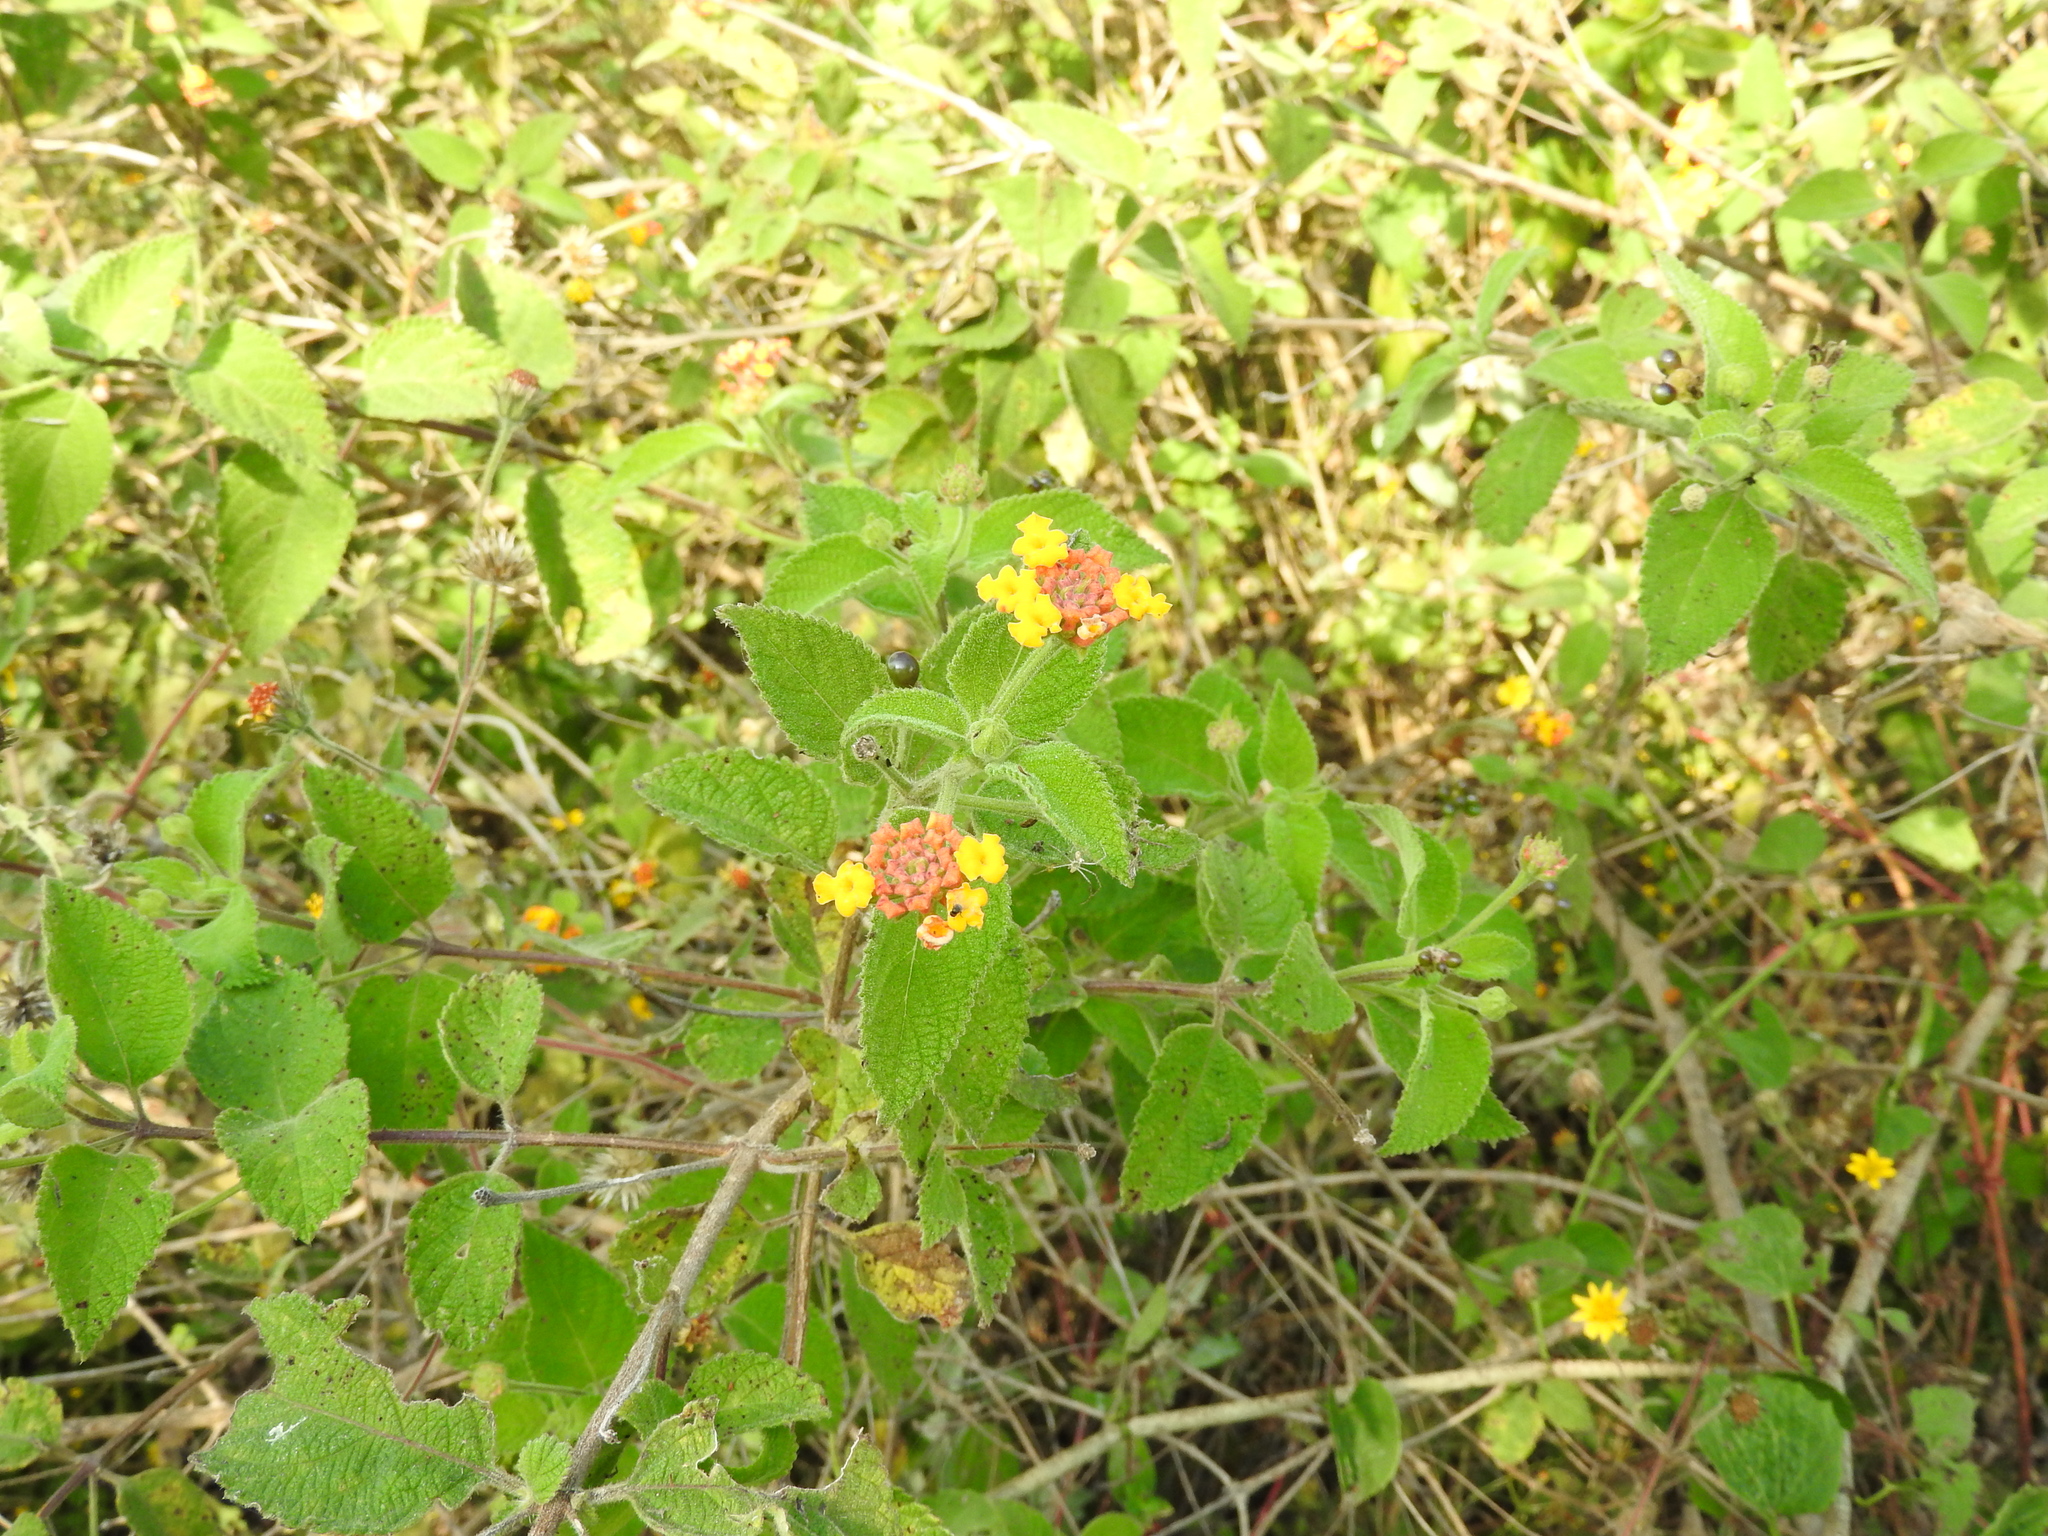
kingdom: Plantae
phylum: Tracheophyta
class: Magnoliopsida
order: Lamiales
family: Verbenaceae
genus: Lantana
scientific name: Lantana camara
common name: Lantana
